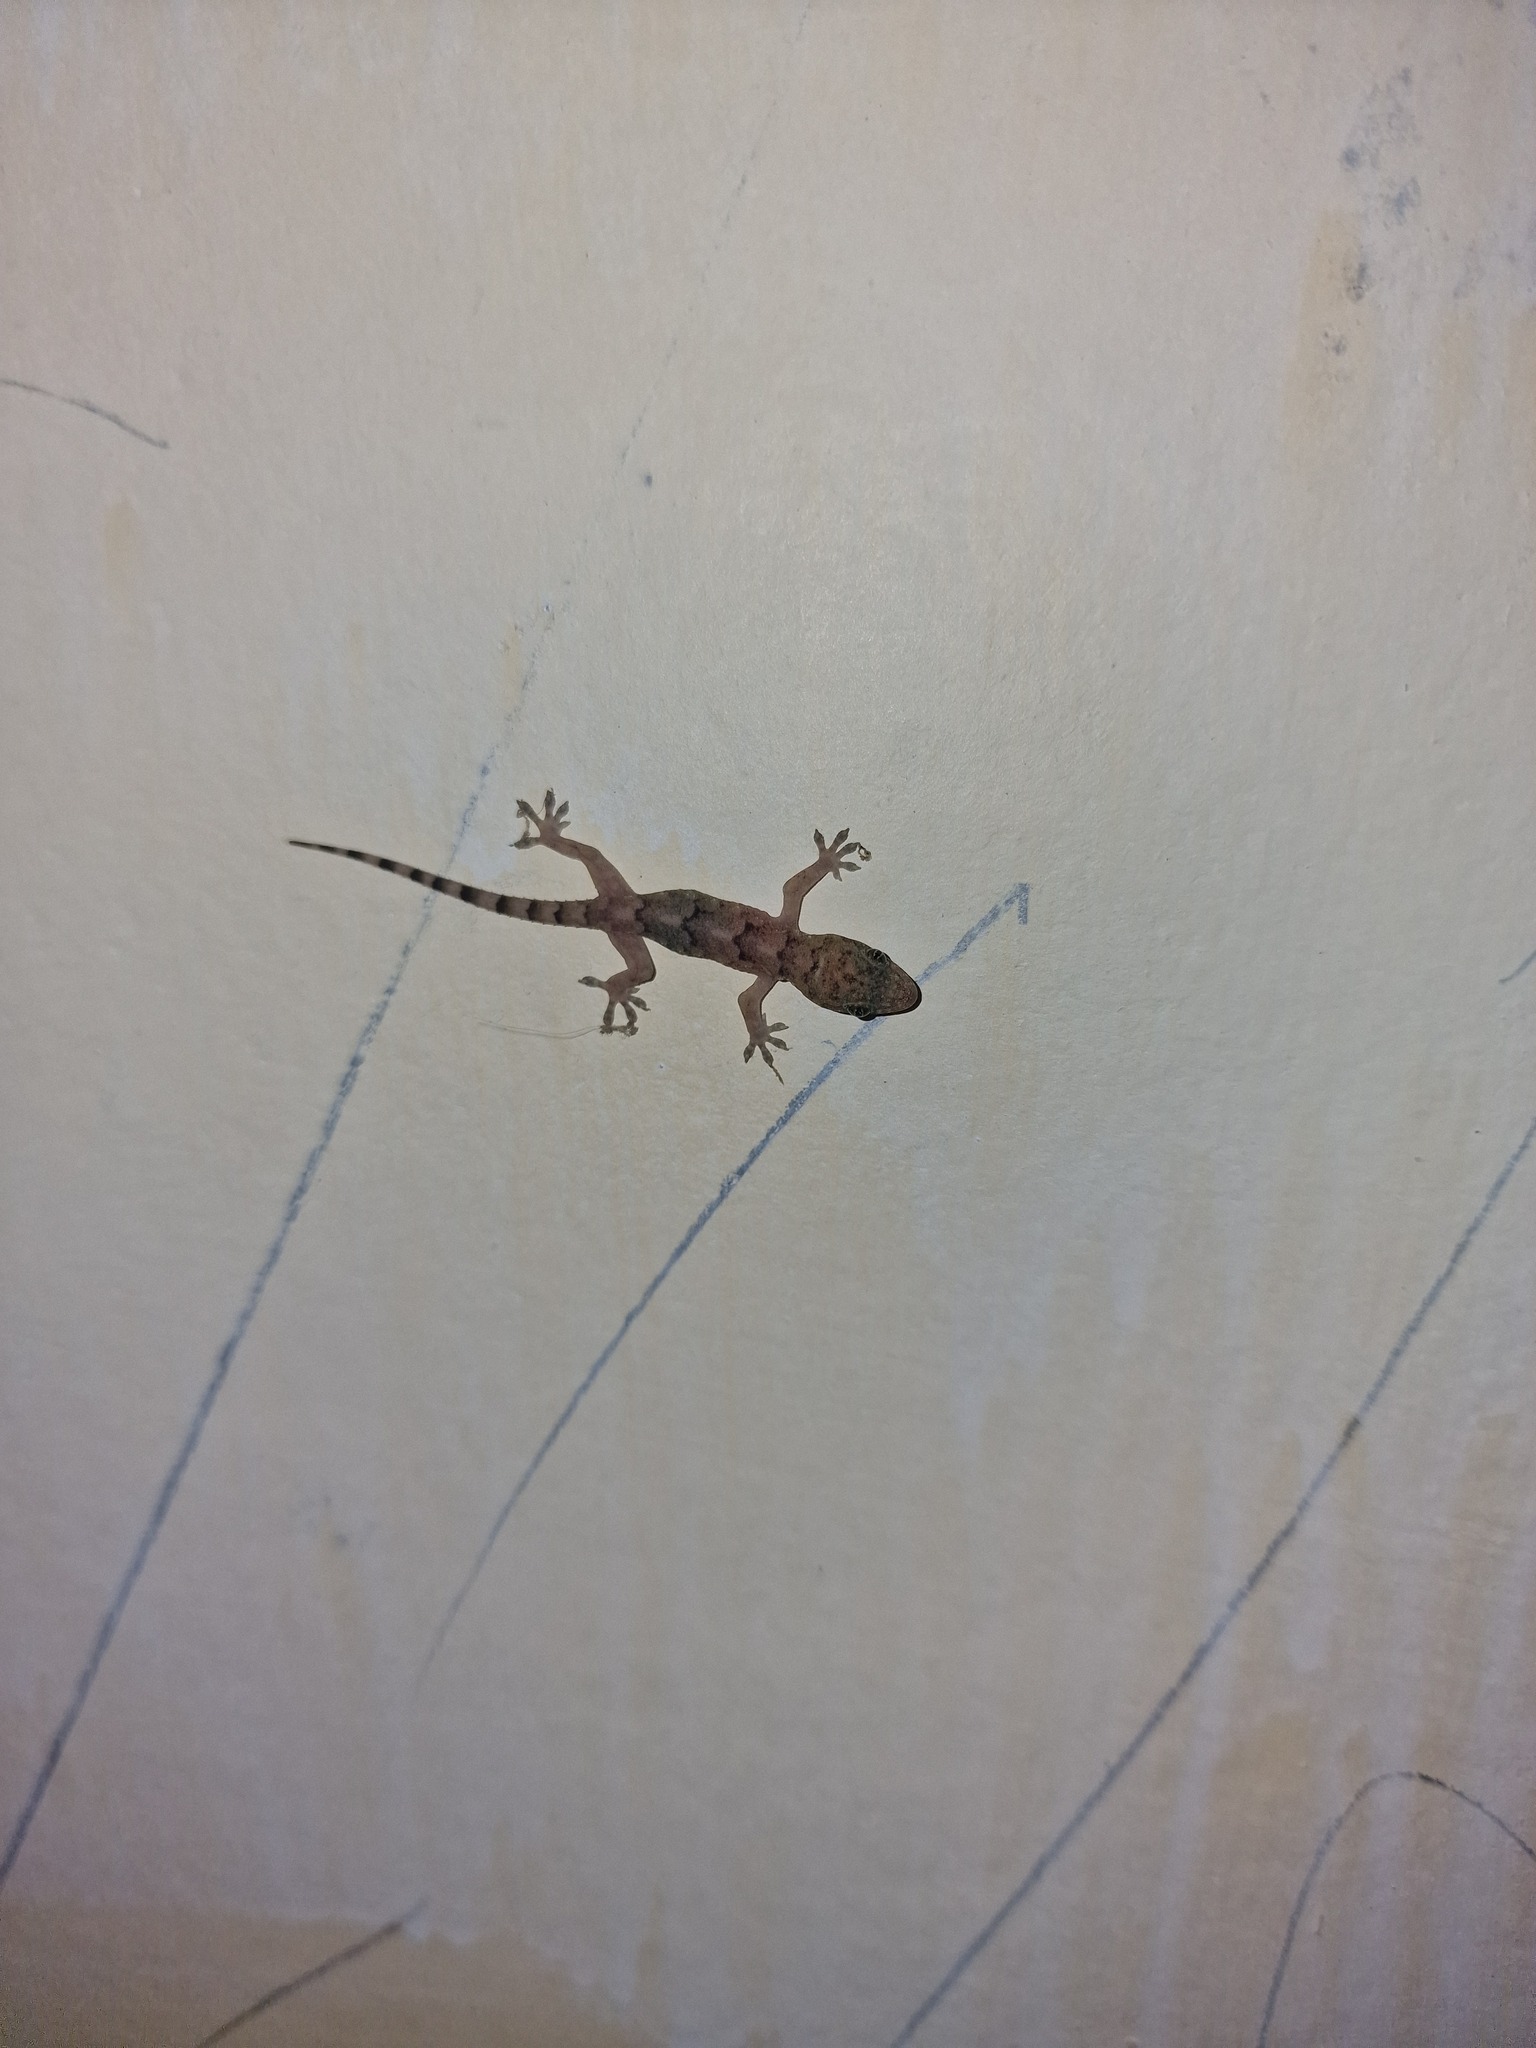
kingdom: Animalia
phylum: Chordata
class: Squamata
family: Gekkonidae
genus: Hemidactylus
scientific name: Hemidactylus mabouia
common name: House gecko
